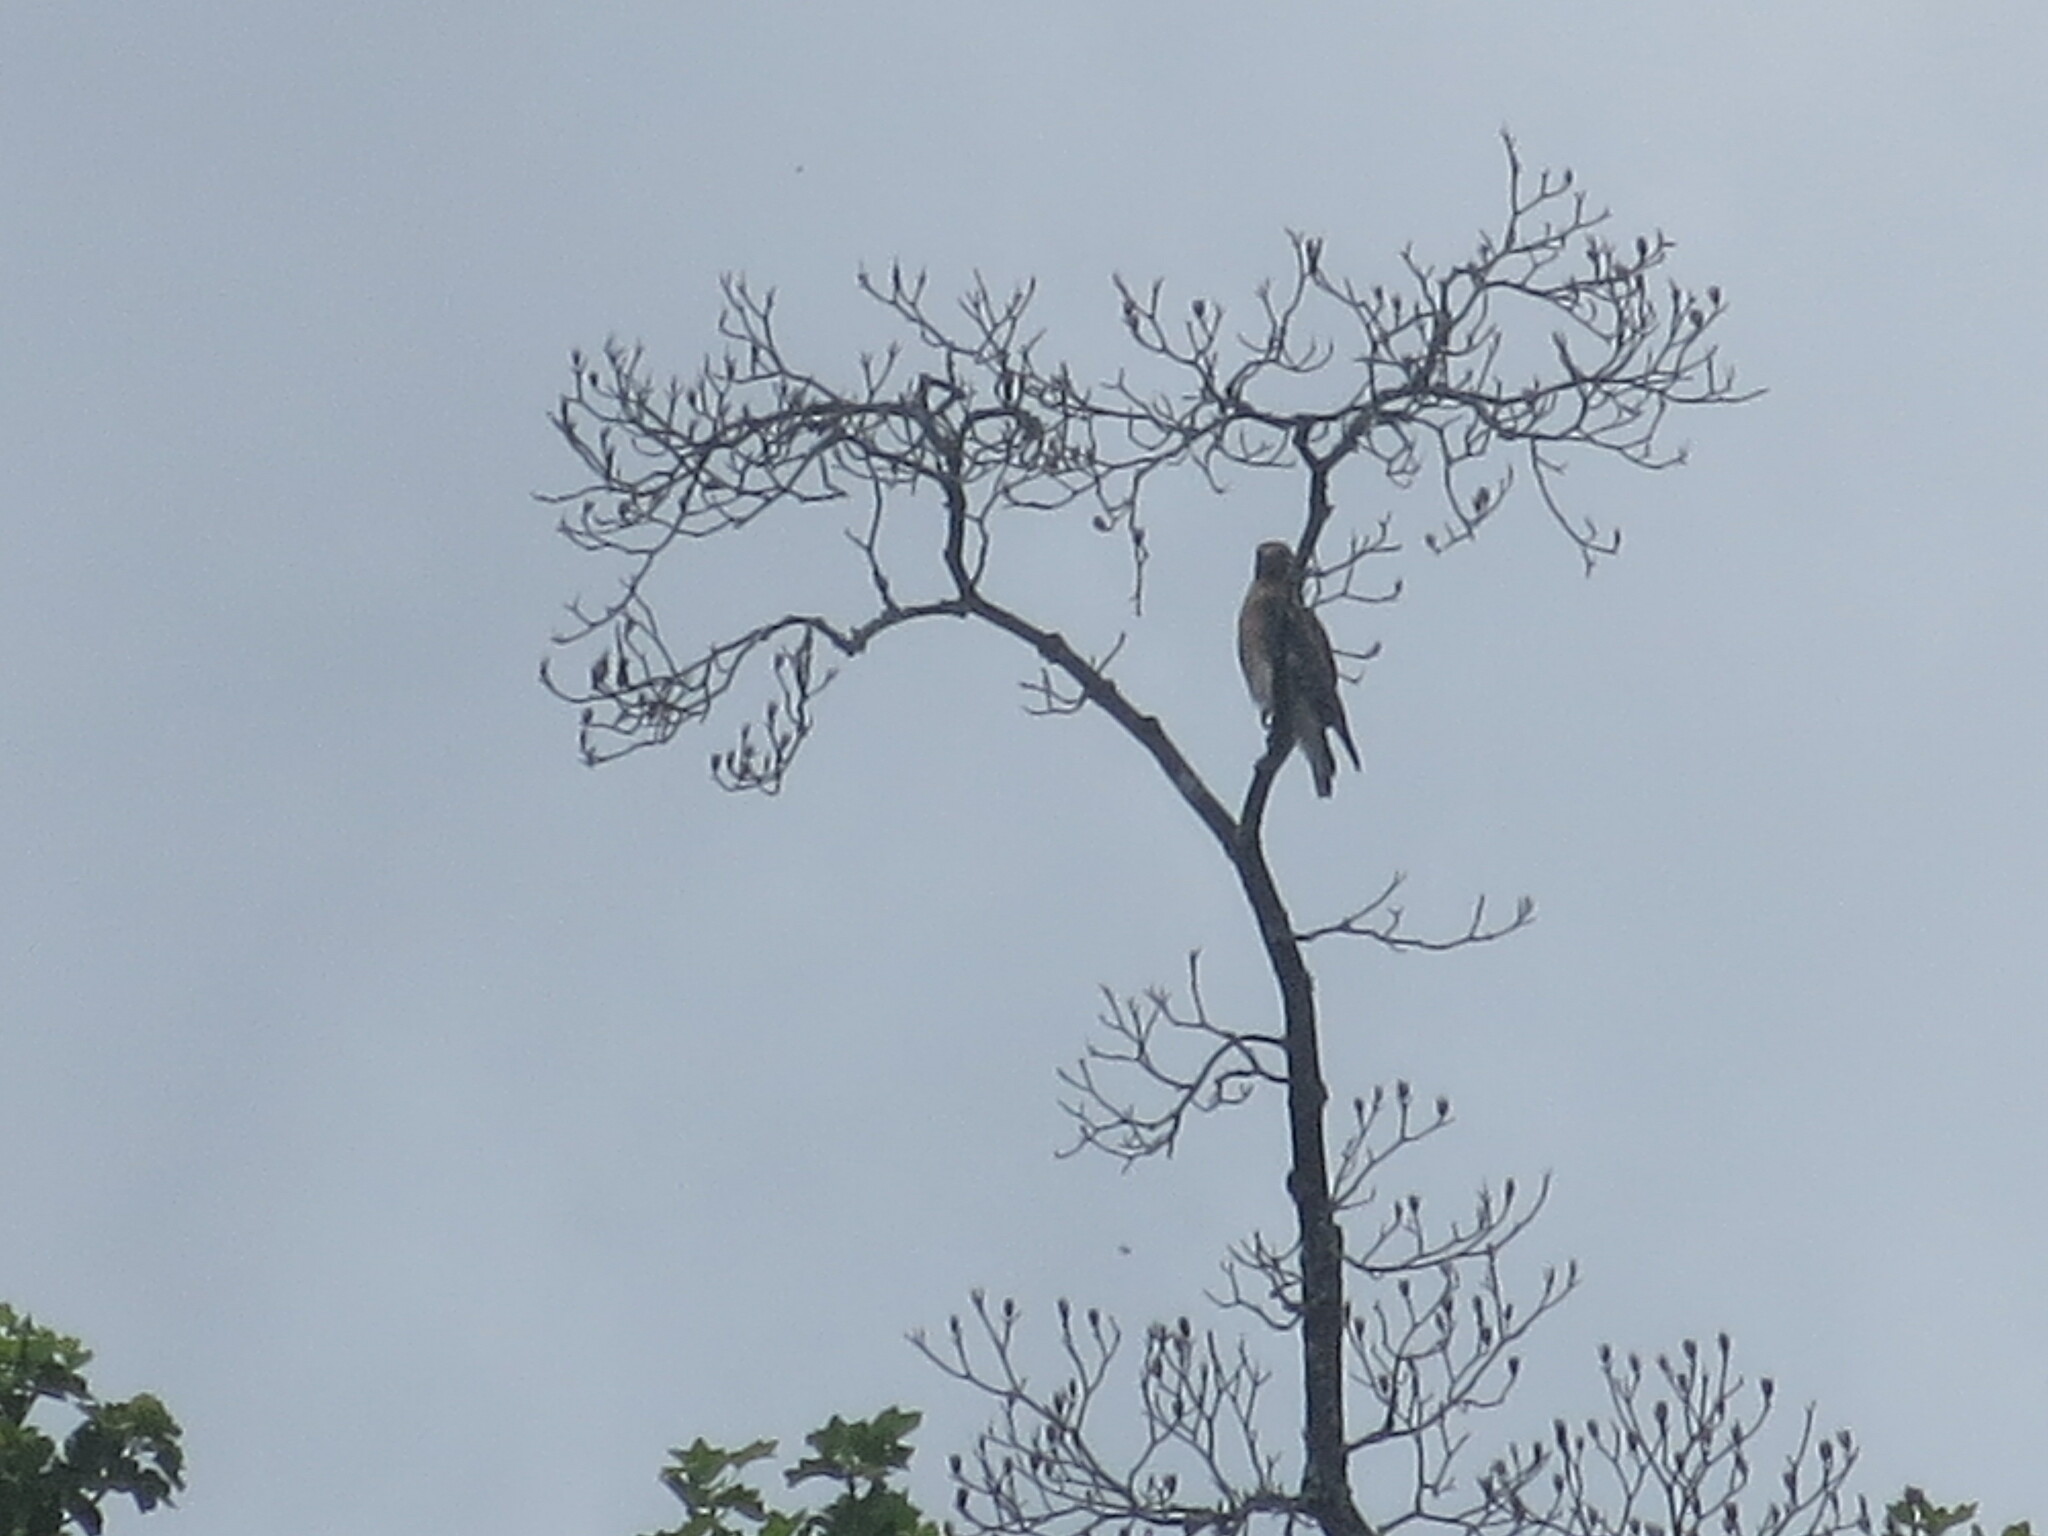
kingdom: Animalia
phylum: Chordata
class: Aves
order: Accipitriformes
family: Accipitridae
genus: Buteo
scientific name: Buteo lineatus
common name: Red-shouldered hawk
